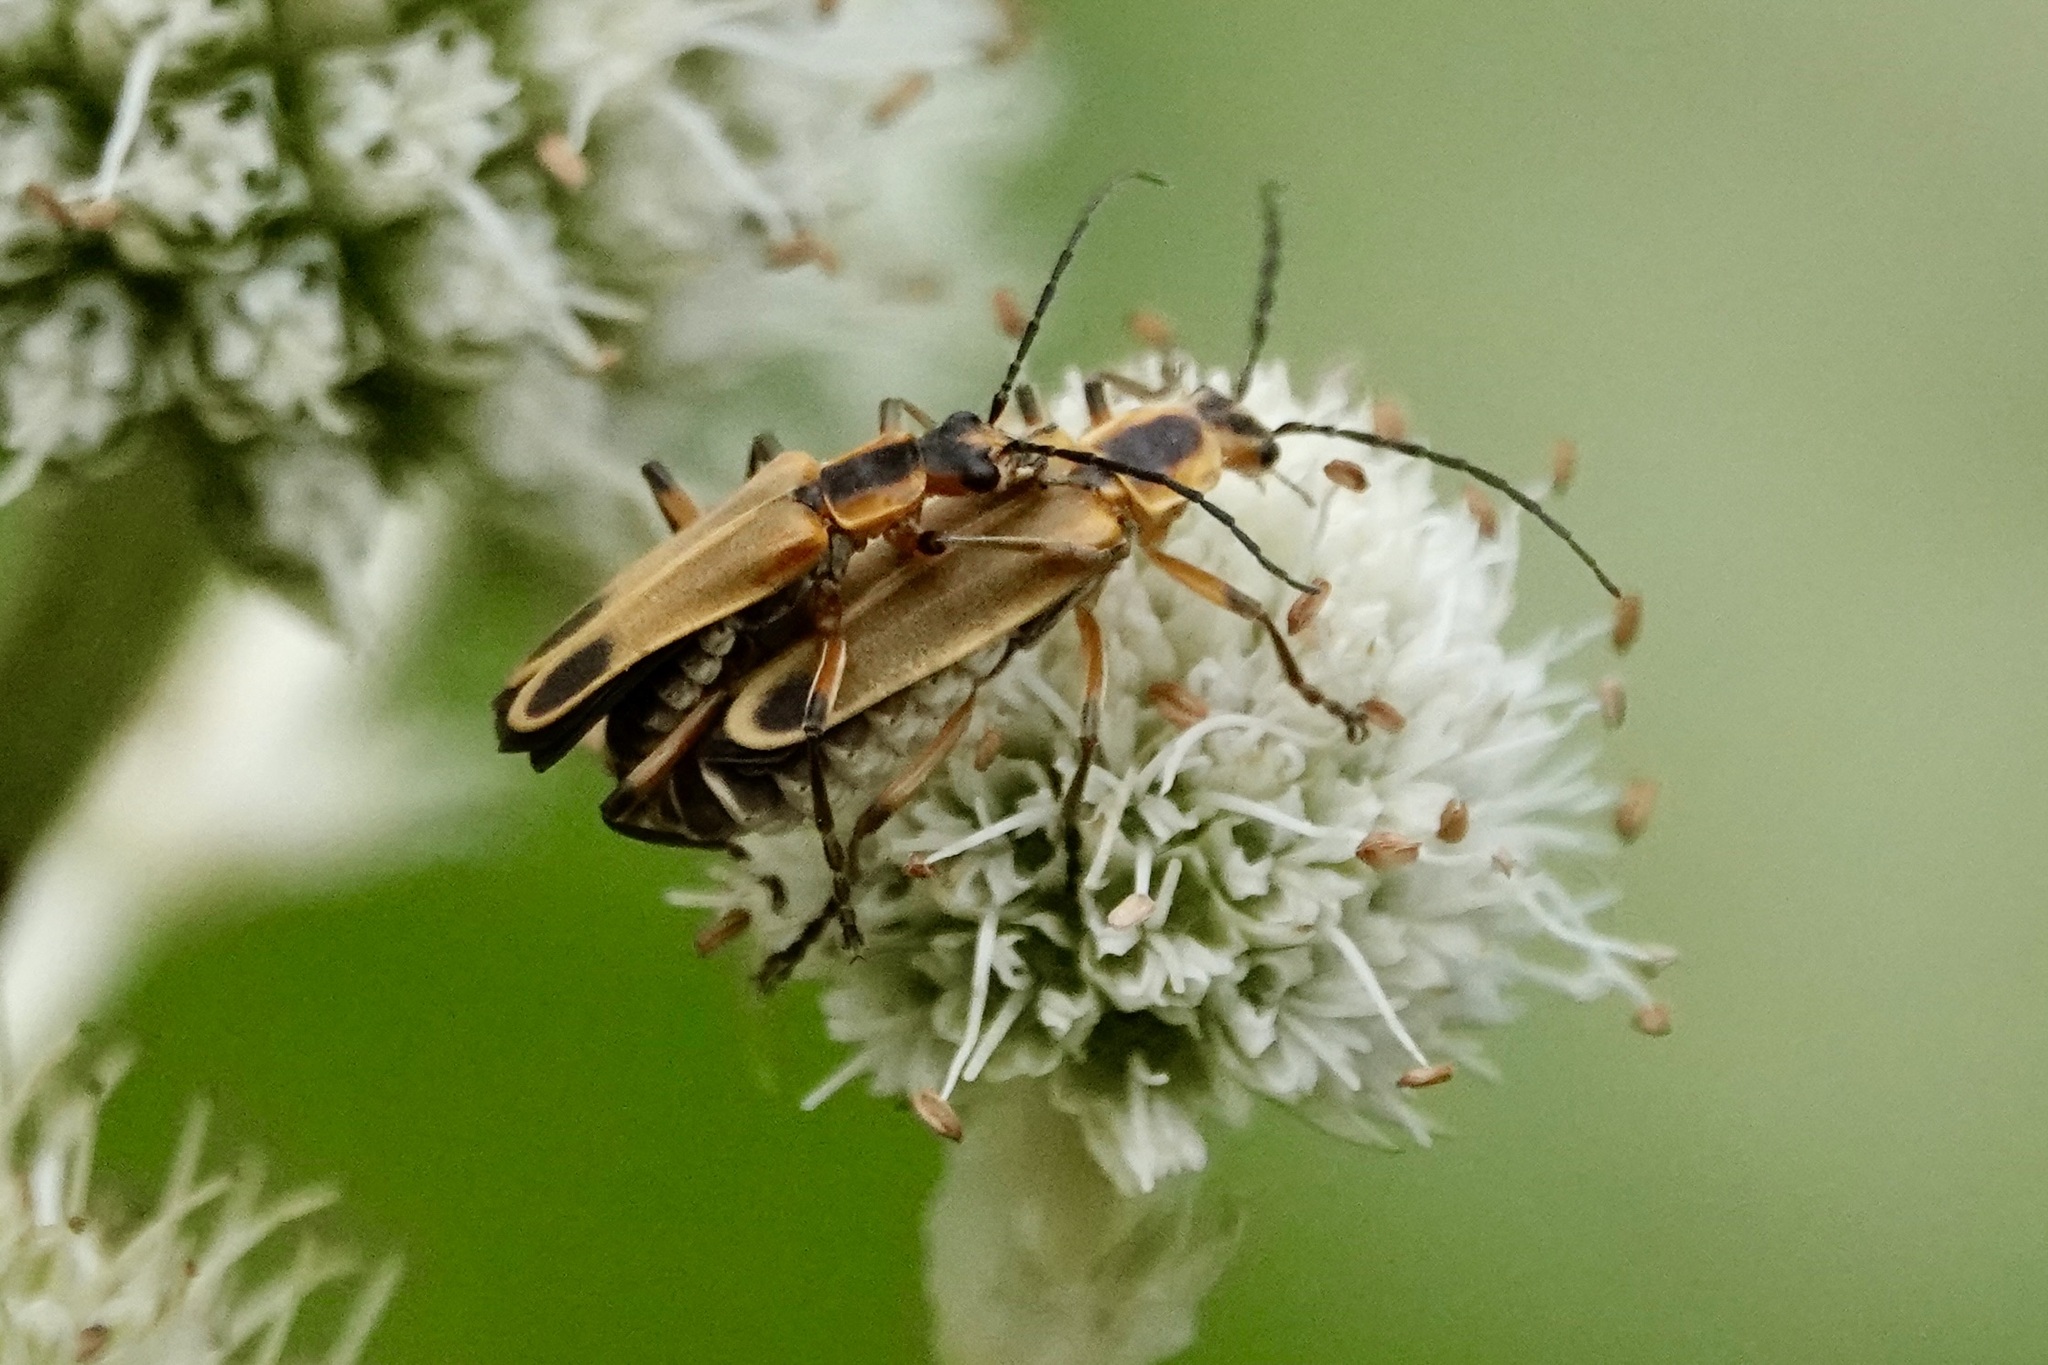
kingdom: Animalia
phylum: Arthropoda
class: Insecta
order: Coleoptera
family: Cantharidae
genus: Chauliognathus
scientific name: Chauliognathus marginatus
